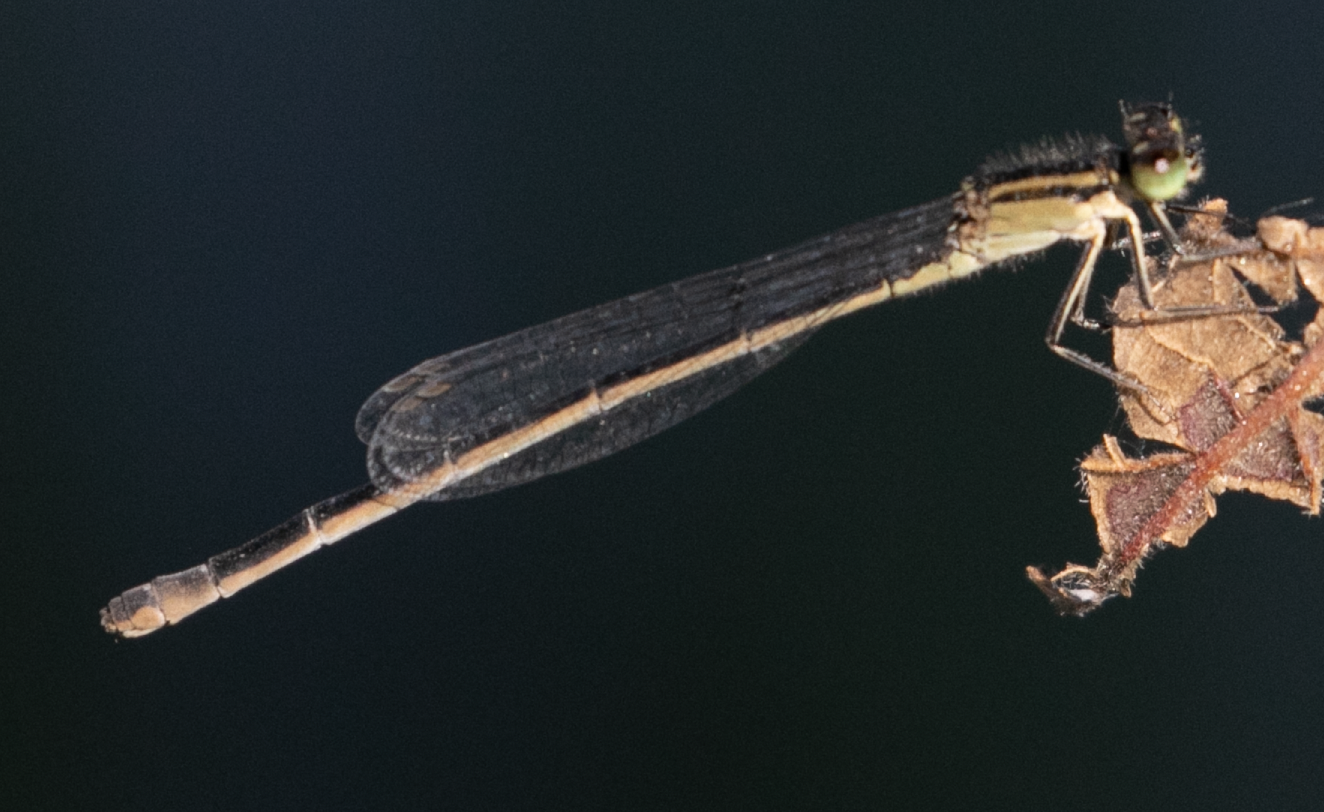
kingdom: Animalia
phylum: Arthropoda
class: Insecta
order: Odonata
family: Coenagrionidae
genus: Ischnura
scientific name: Ischnura elegans
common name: Blue-tailed damselfly
